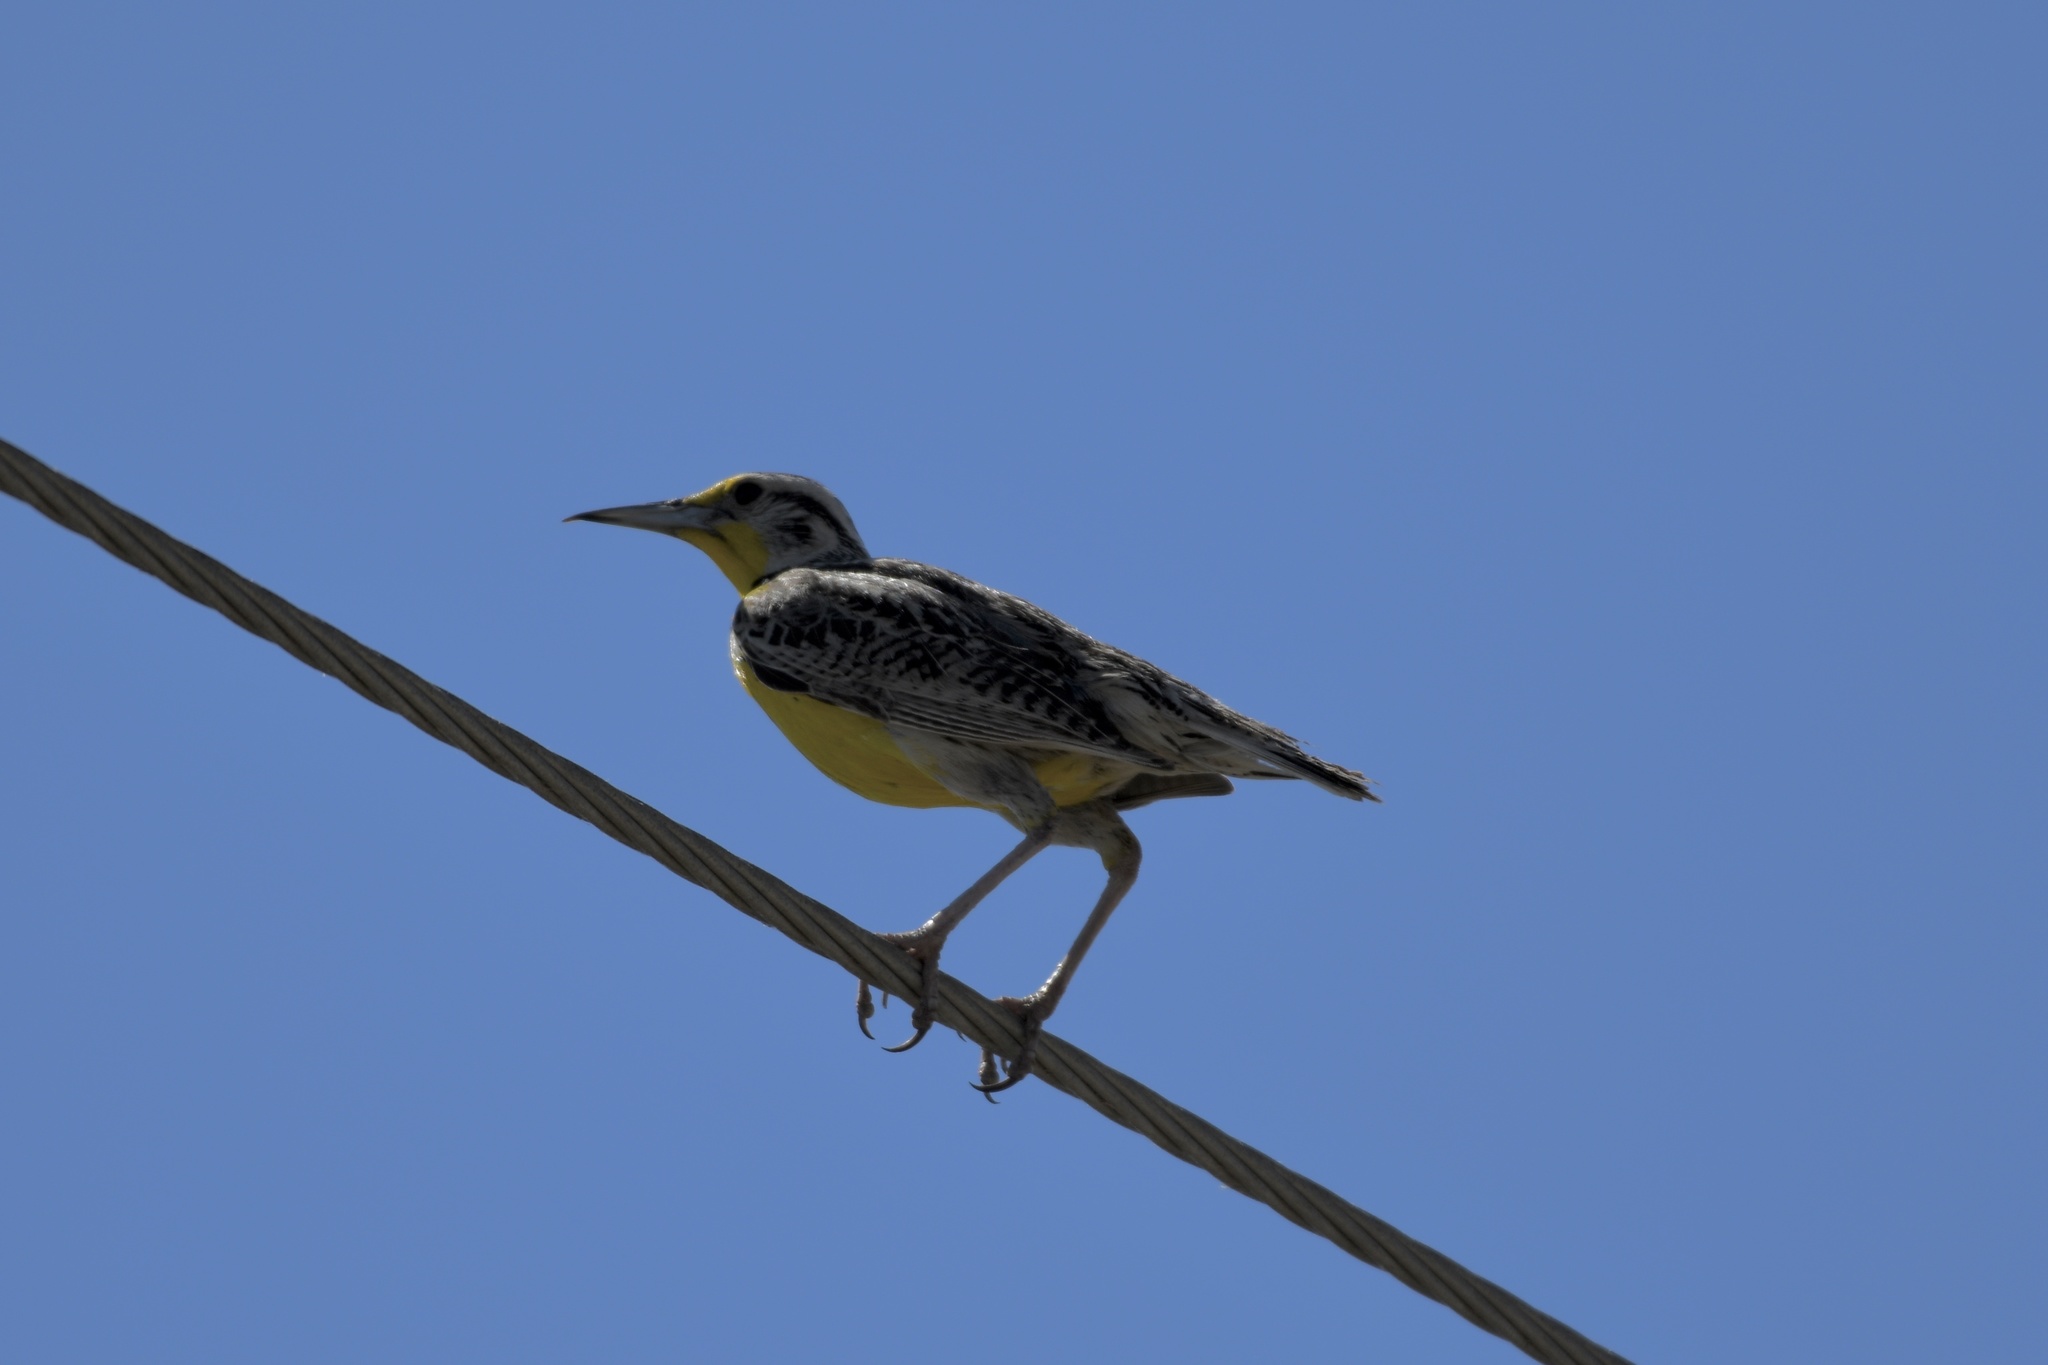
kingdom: Animalia
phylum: Chordata
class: Aves
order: Passeriformes
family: Icteridae
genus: Sturnella
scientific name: Sturnella neglecta
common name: Western meadowlark
